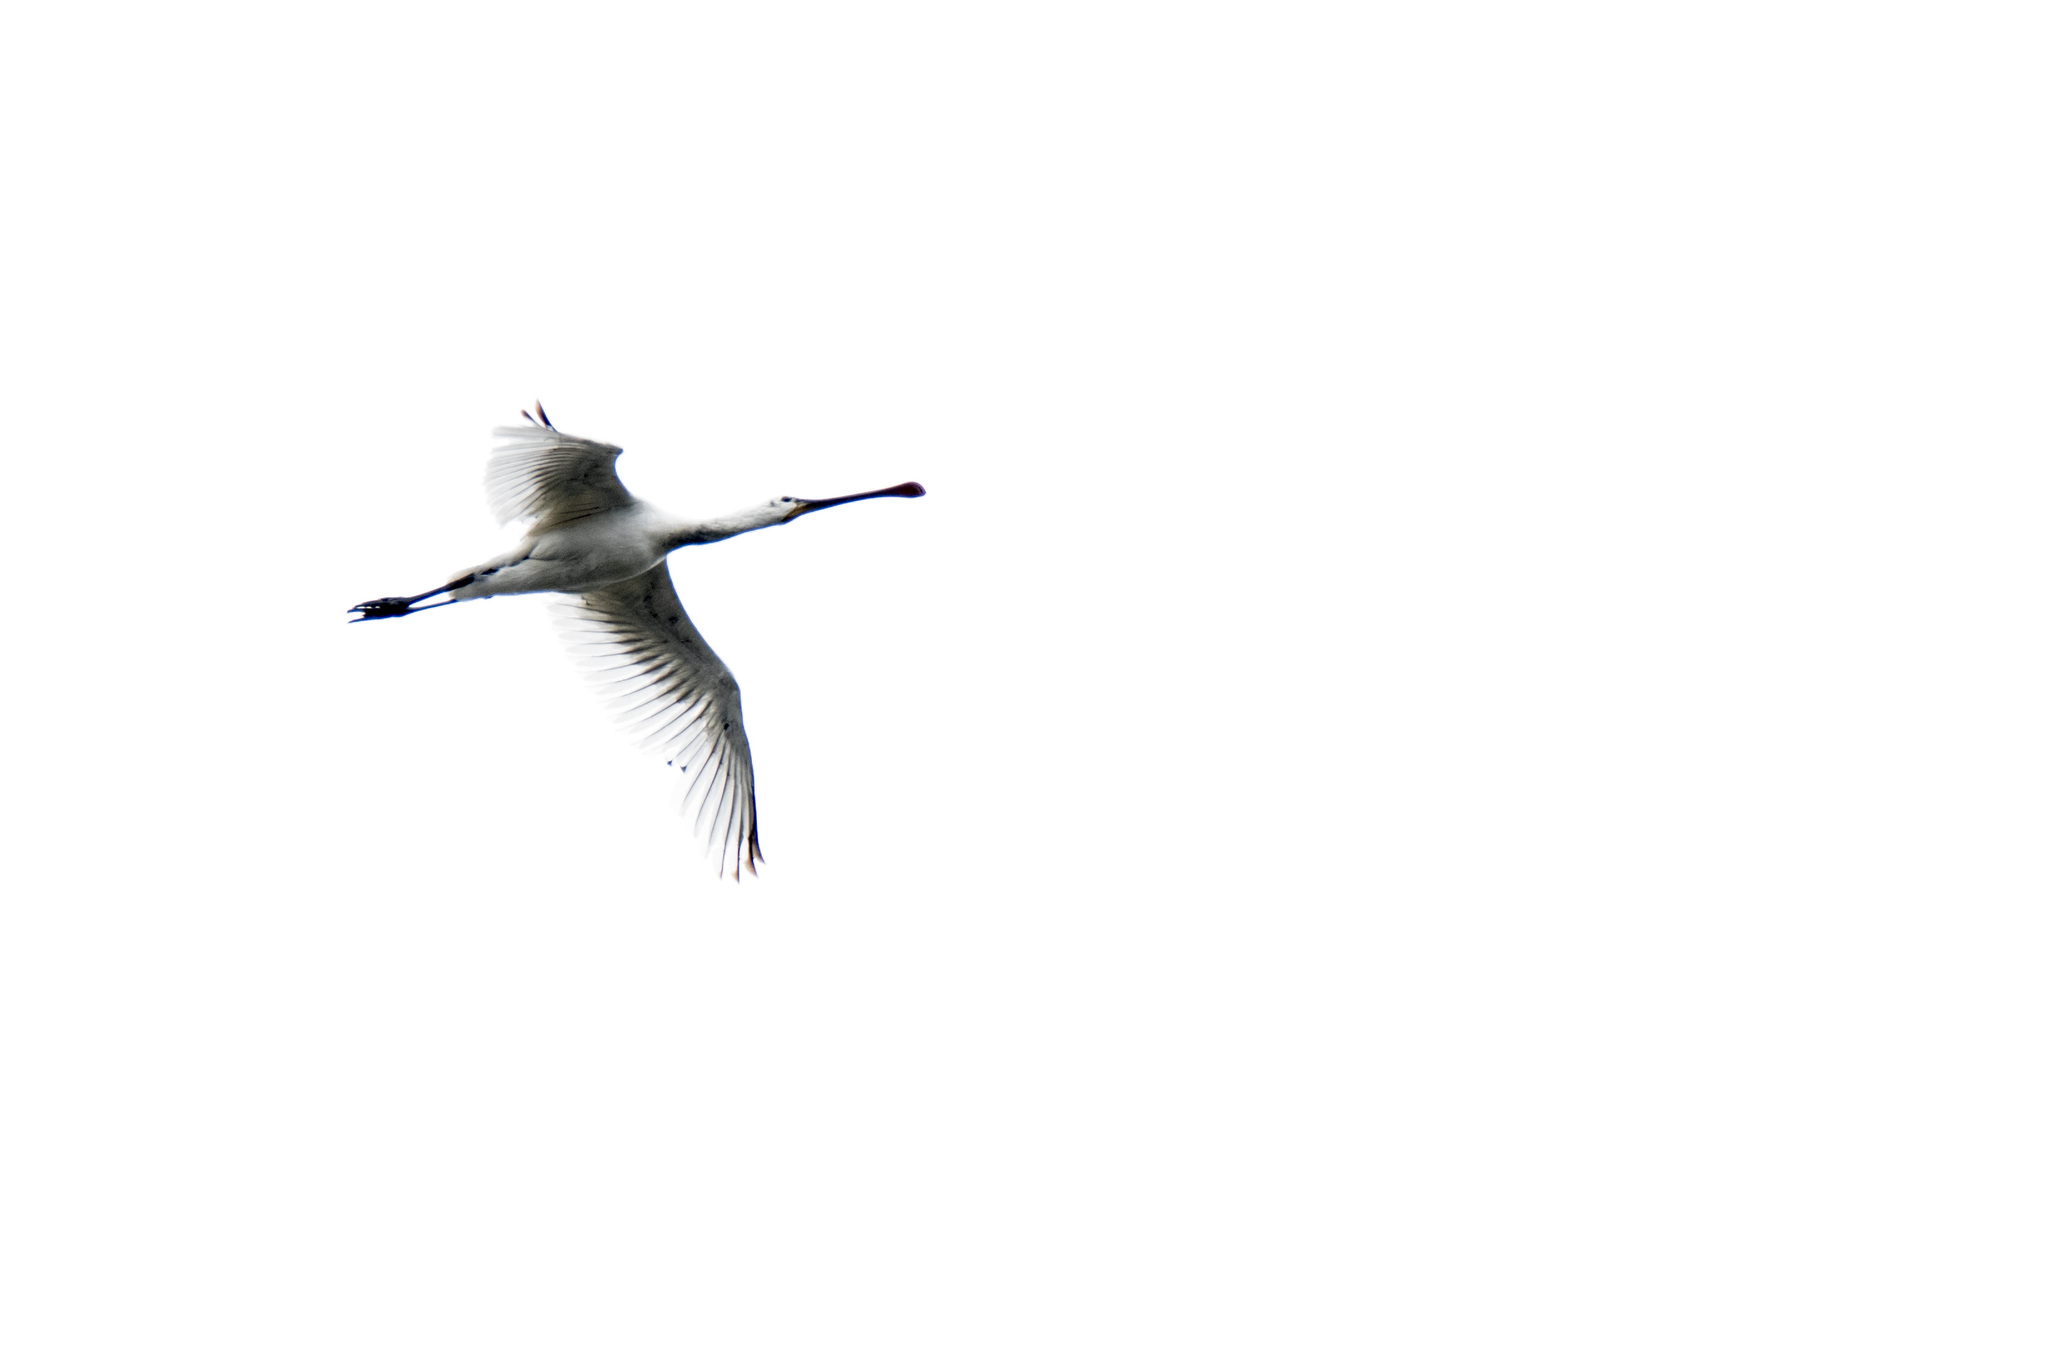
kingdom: Animalia
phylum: Chordata
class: Aves
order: Pelecaniformes
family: Threskiornithidae
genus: Platalea
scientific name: Platalea leucorodia
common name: Eurasian spoonbill
